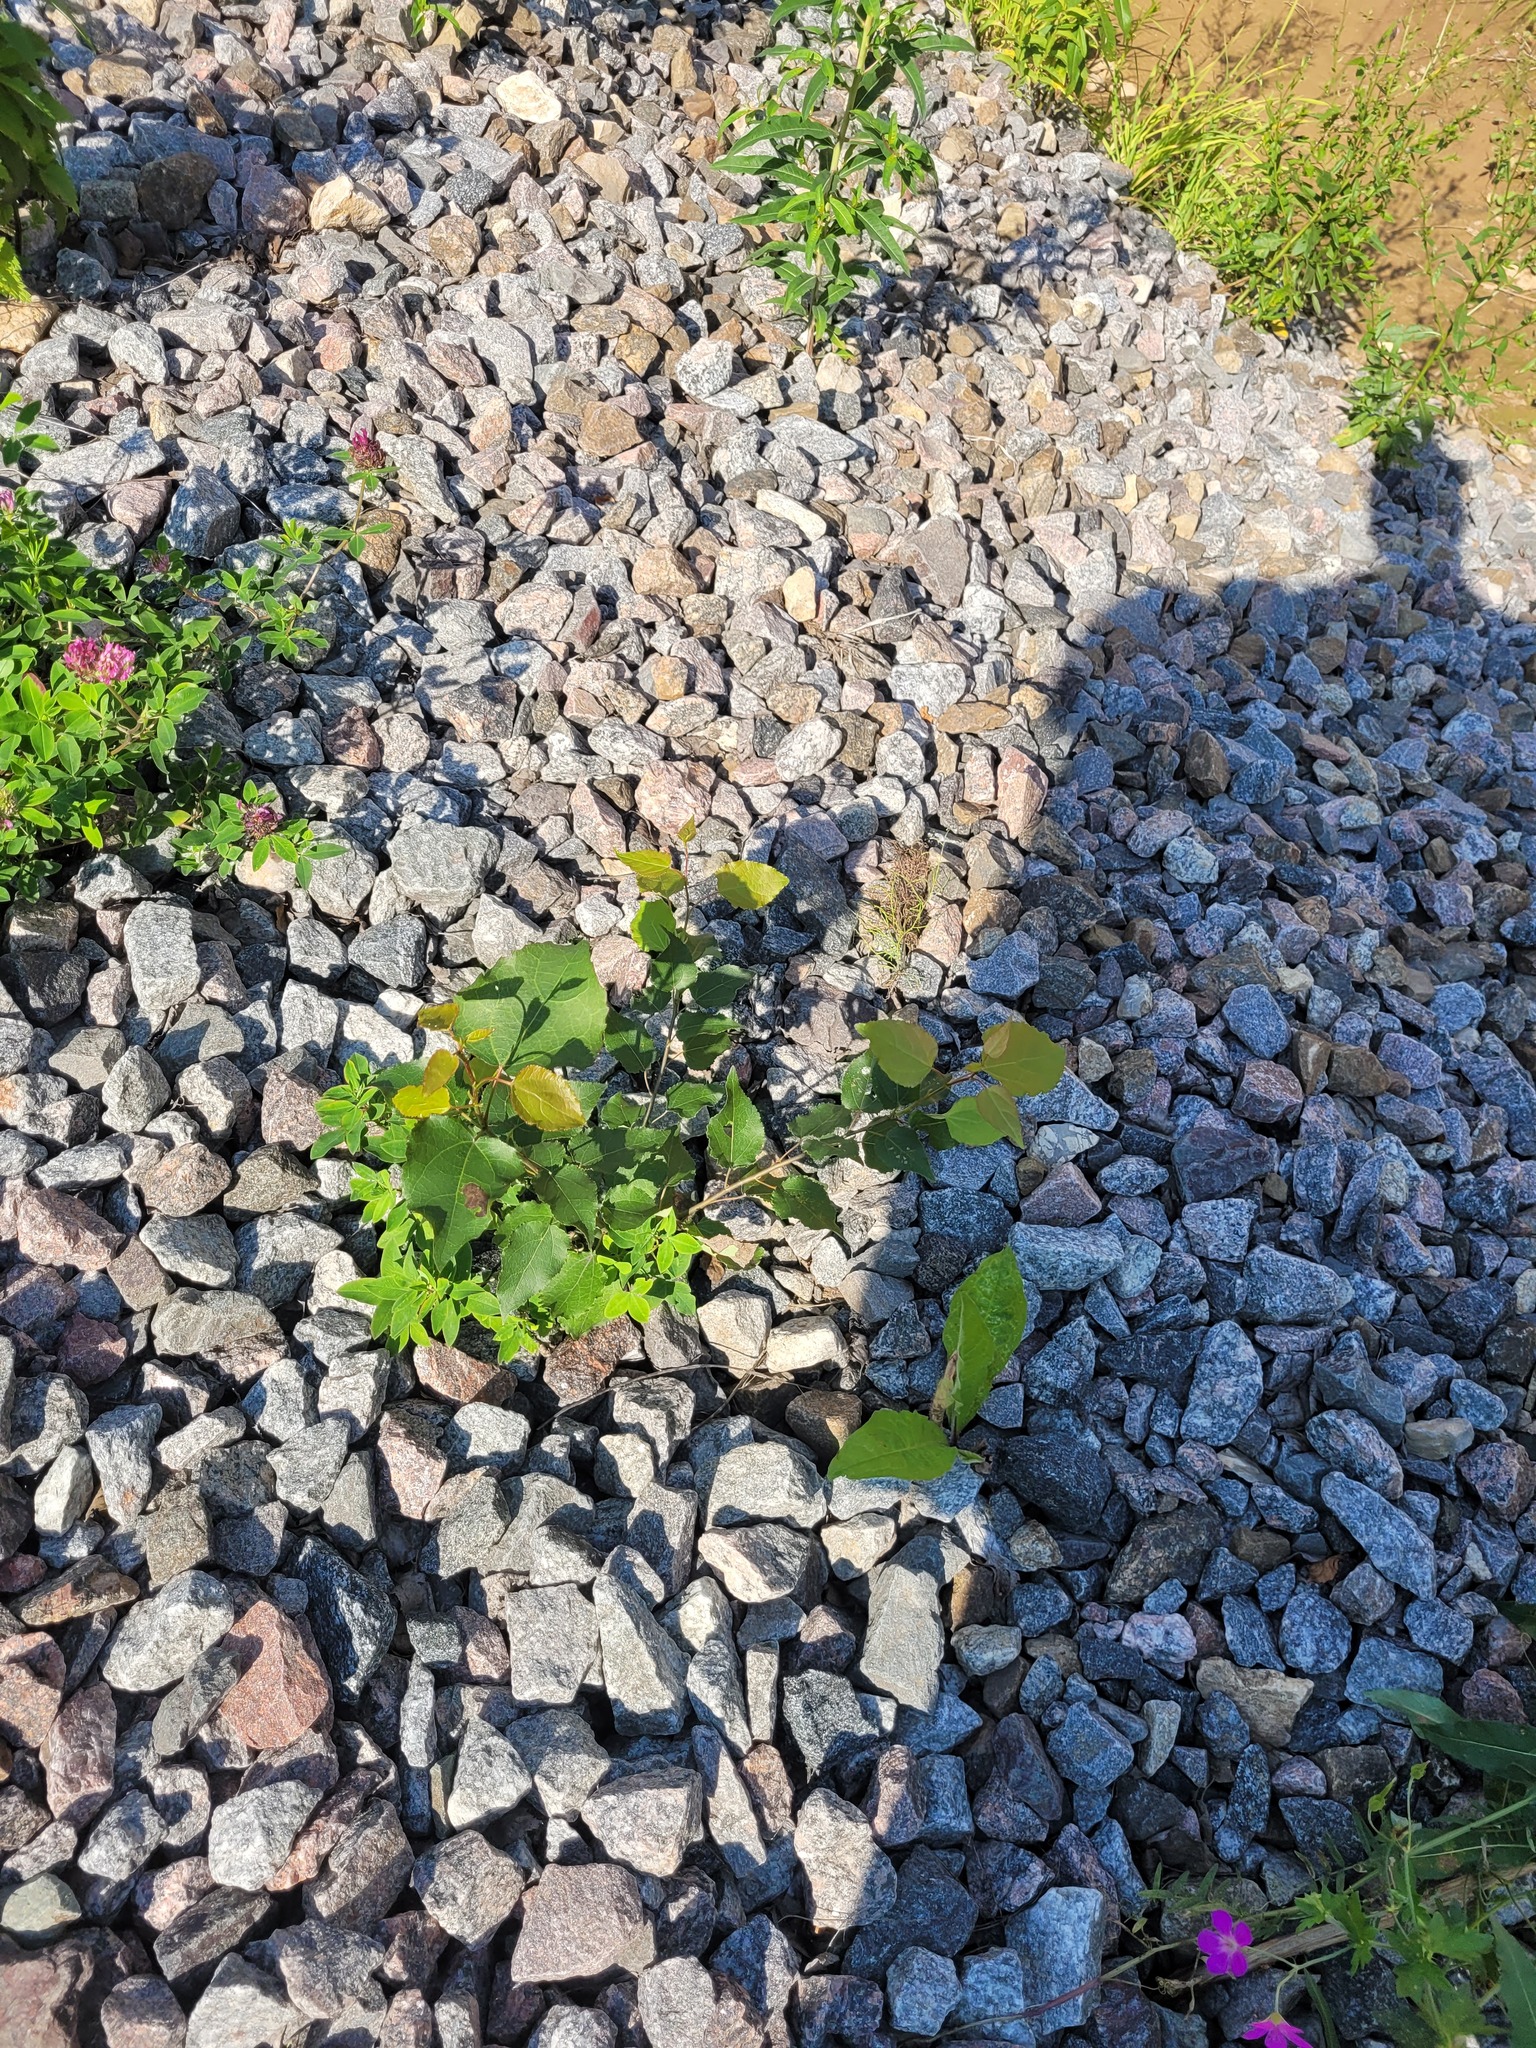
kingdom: Plantae
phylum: Tracheophyta
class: Magnoliopsida
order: Malpighiales
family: Salicaceae
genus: Populus
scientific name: Populus tremula
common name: European aspen
